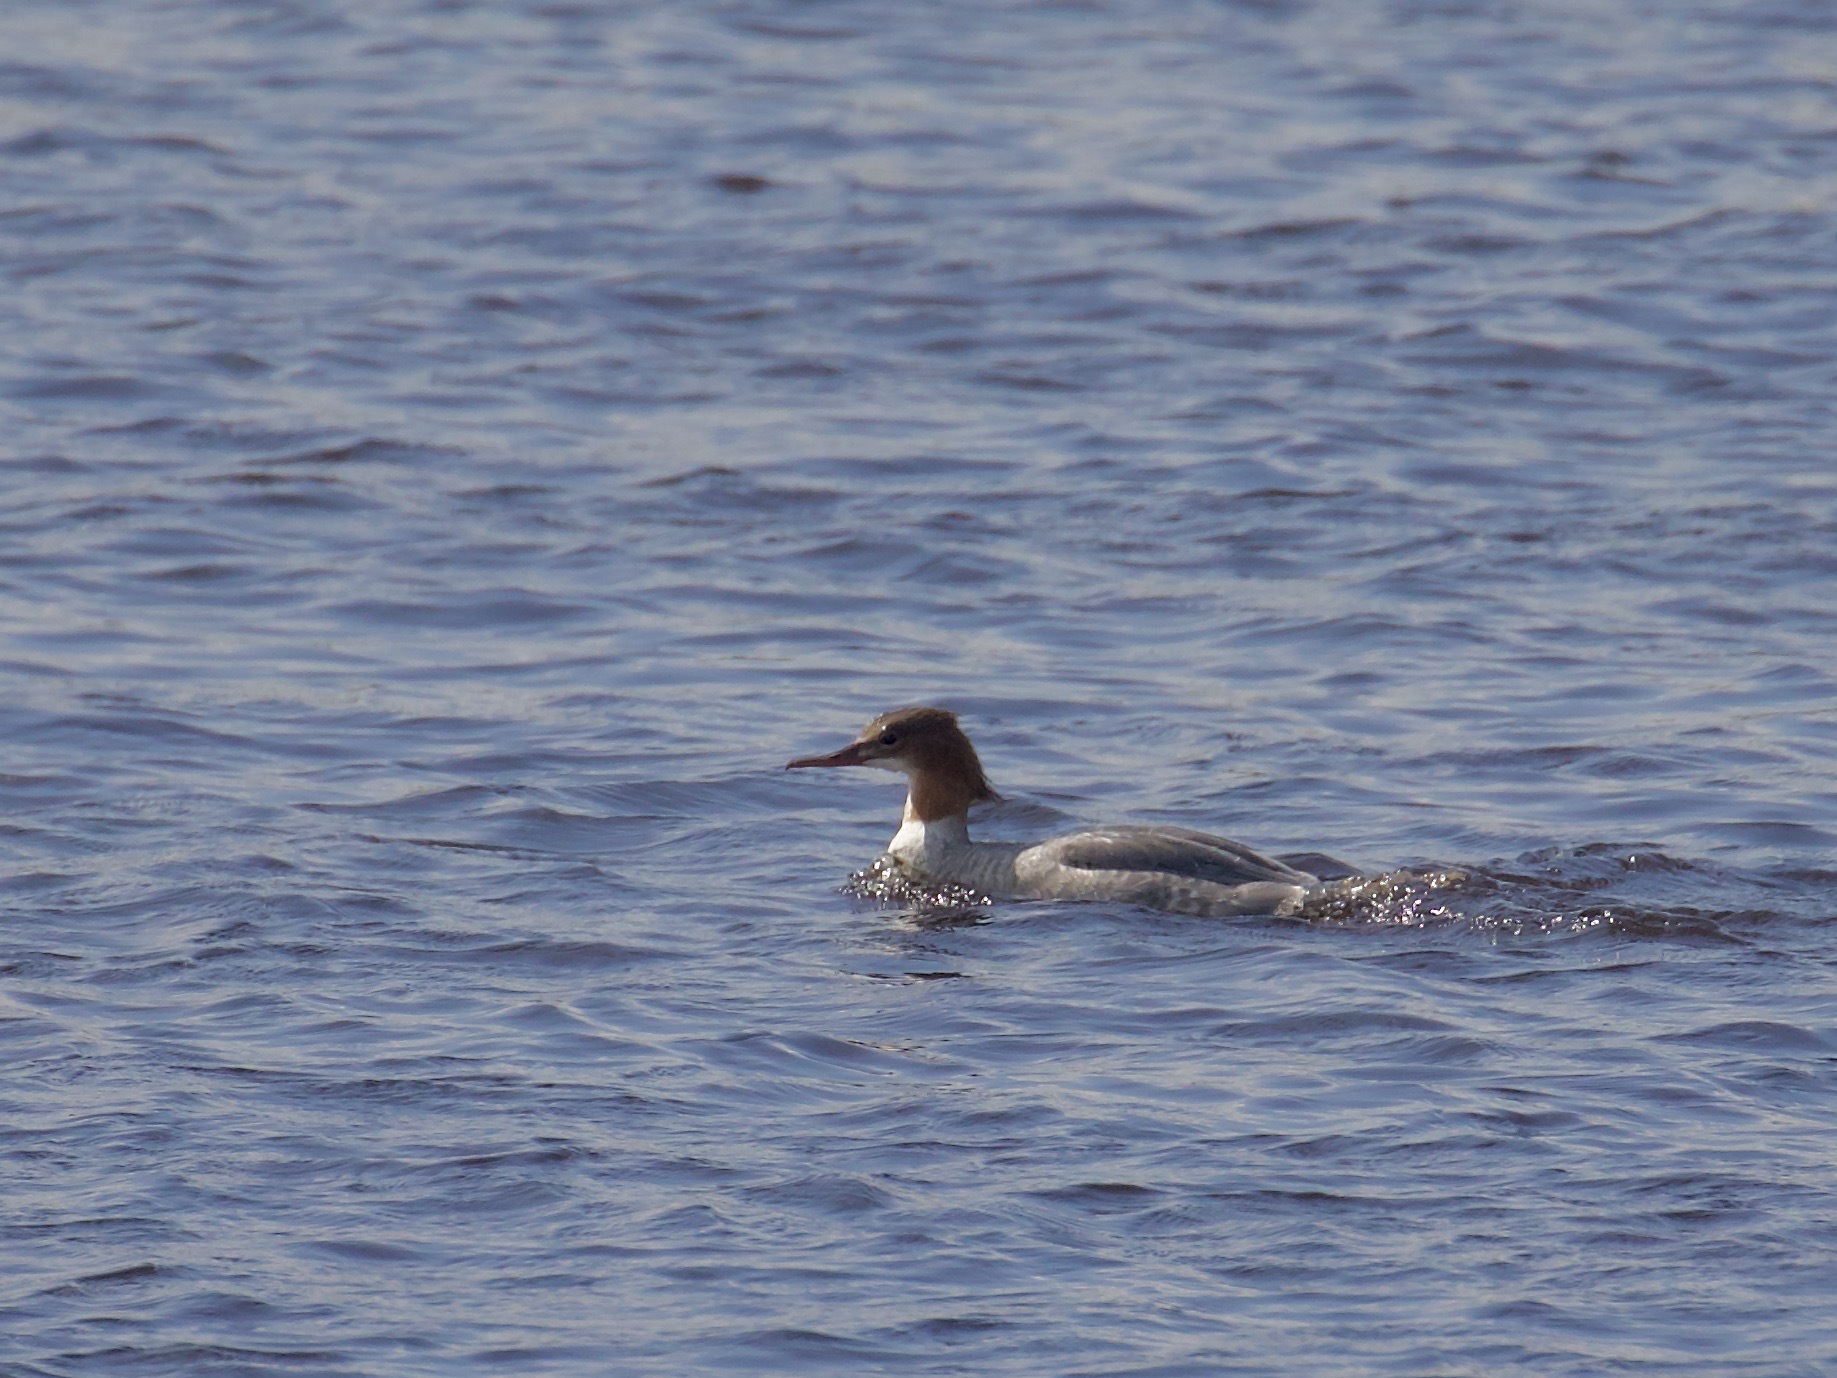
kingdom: Animalia
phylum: Chordata
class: Aves
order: Anseriformes
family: Anatidae
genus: Mergus
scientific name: Mergus merganser
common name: Common merganser
